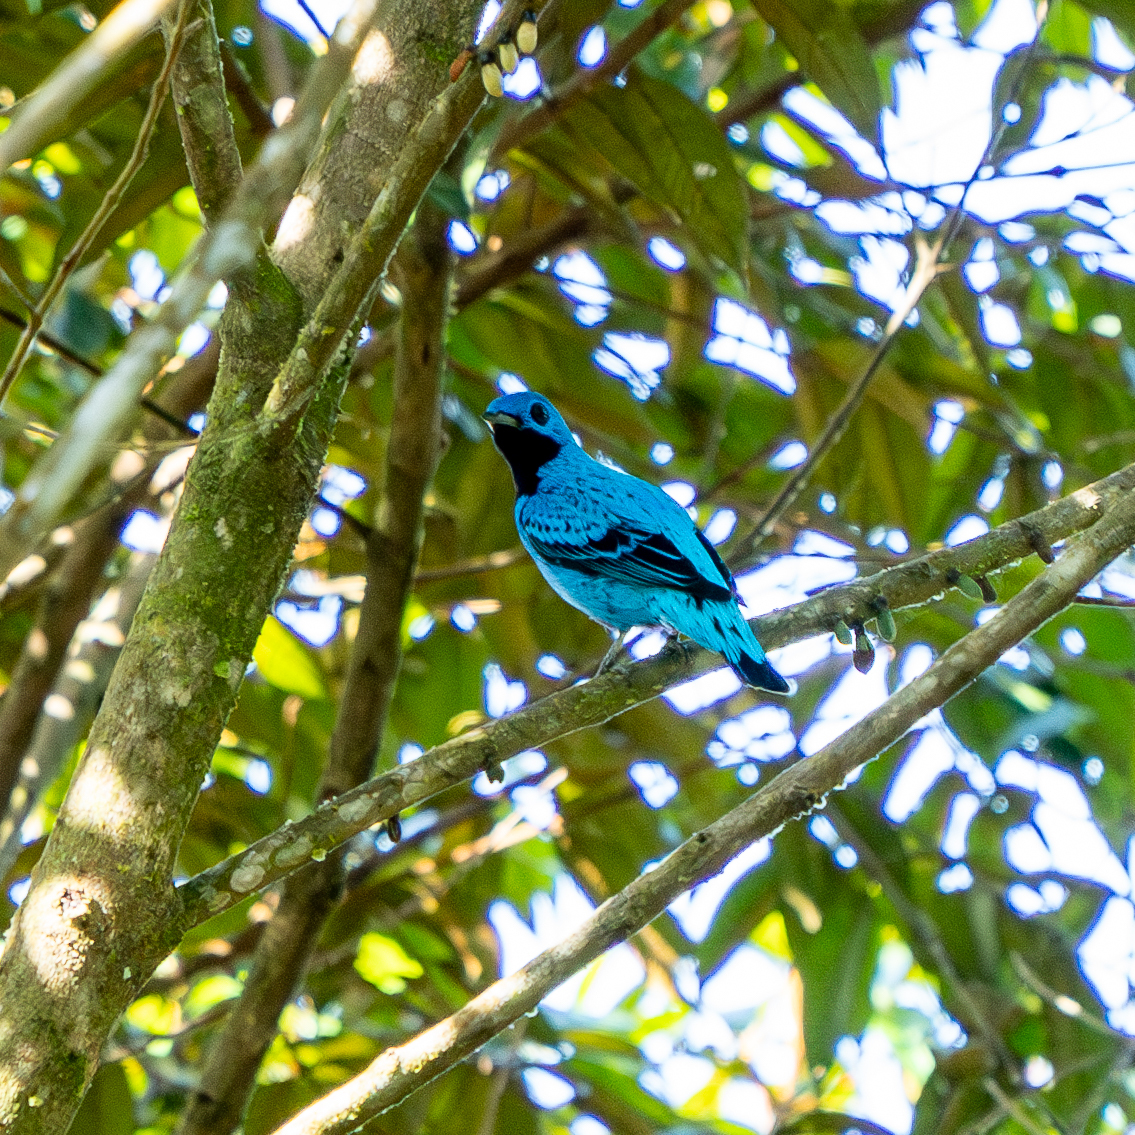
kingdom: Animalia
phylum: Chordata
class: Aves
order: Passeriformes
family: Cotingidae
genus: Cotinga
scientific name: Cotinga nattererii
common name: Blue cotinga
